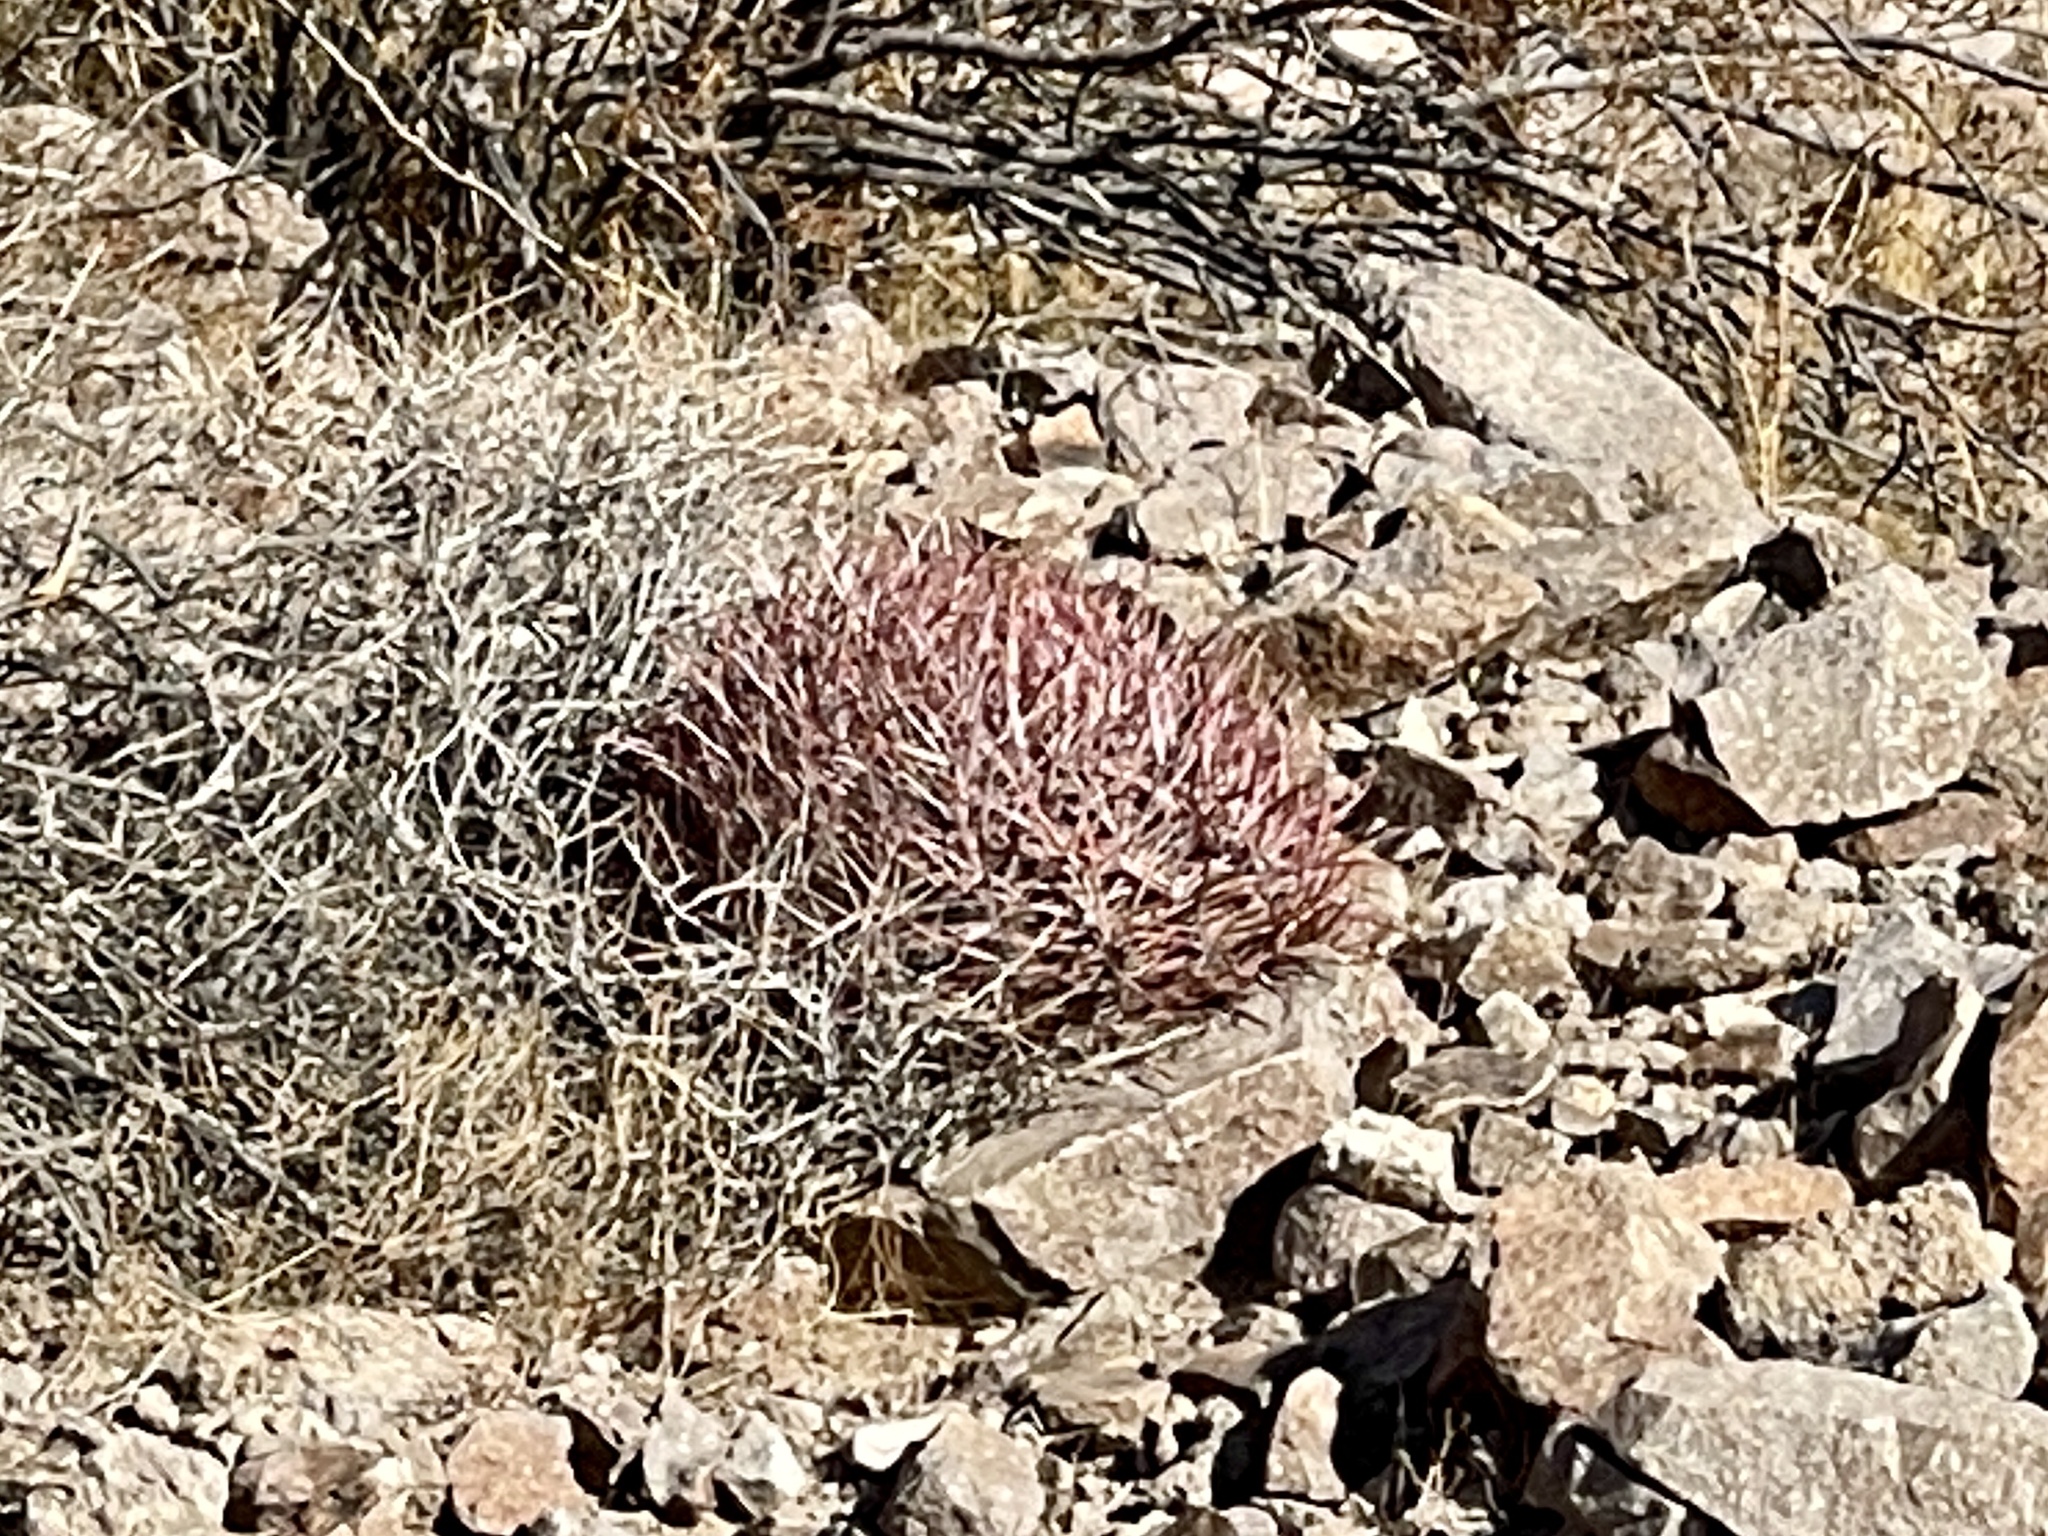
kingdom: Plantae
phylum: Tracheophyta
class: Magnoliopsida
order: Caryophyllales
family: Cactaceae
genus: Ferocactus
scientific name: Ferocactus cylindraceus
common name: California barrel cactus
